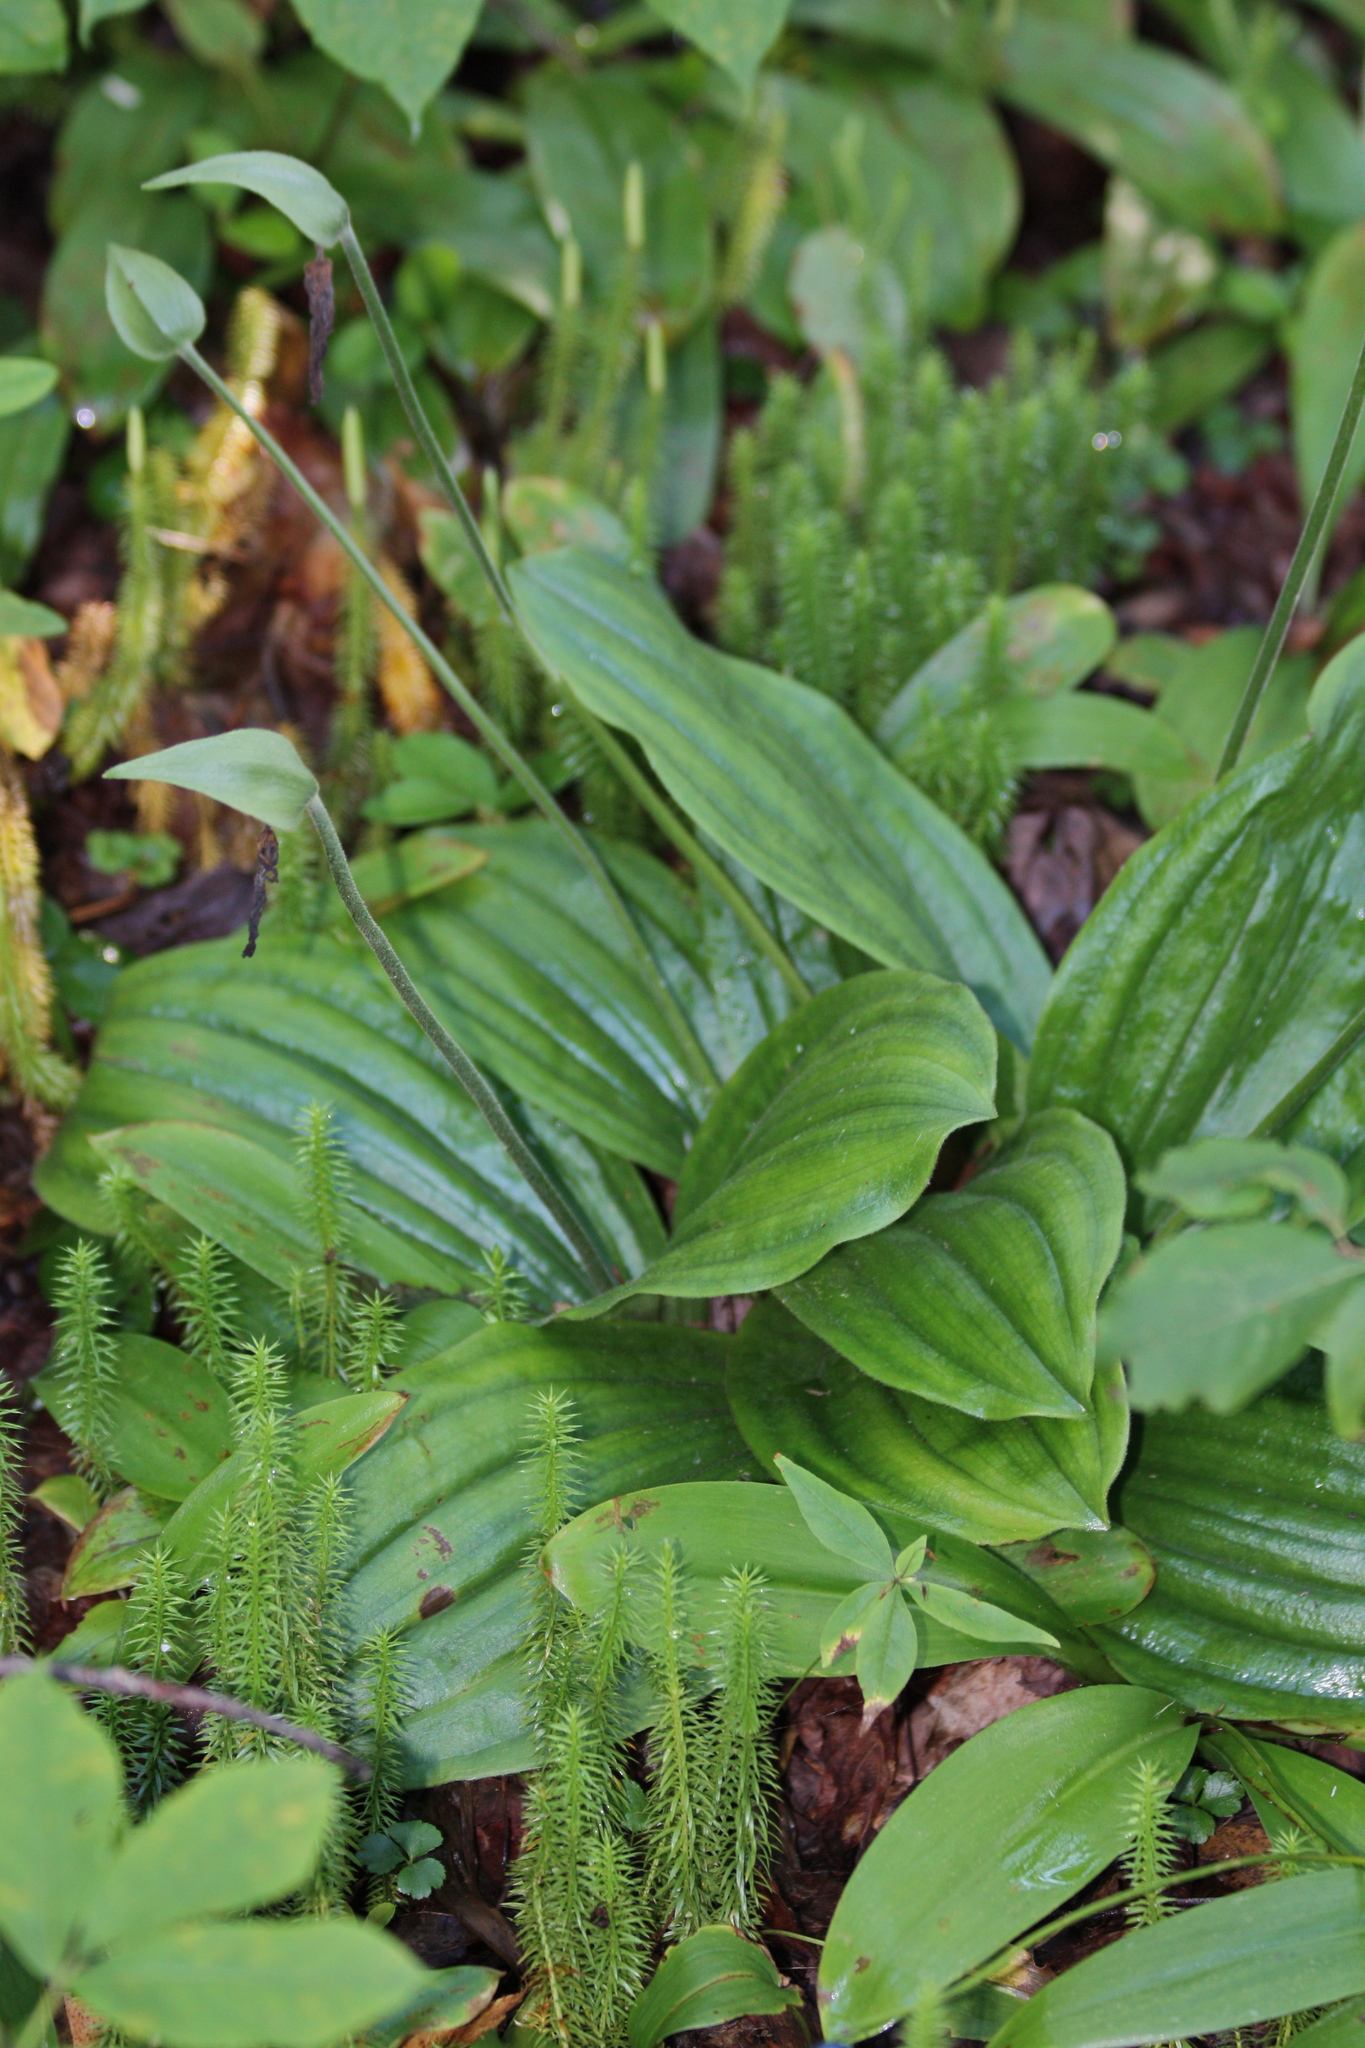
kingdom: Plantae
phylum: Tracheophyta
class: Liliopsida
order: Asparagales
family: Orchidaceae
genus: Cypripedium
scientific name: Cypripedium acaule
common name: Pink lady's-slipper
